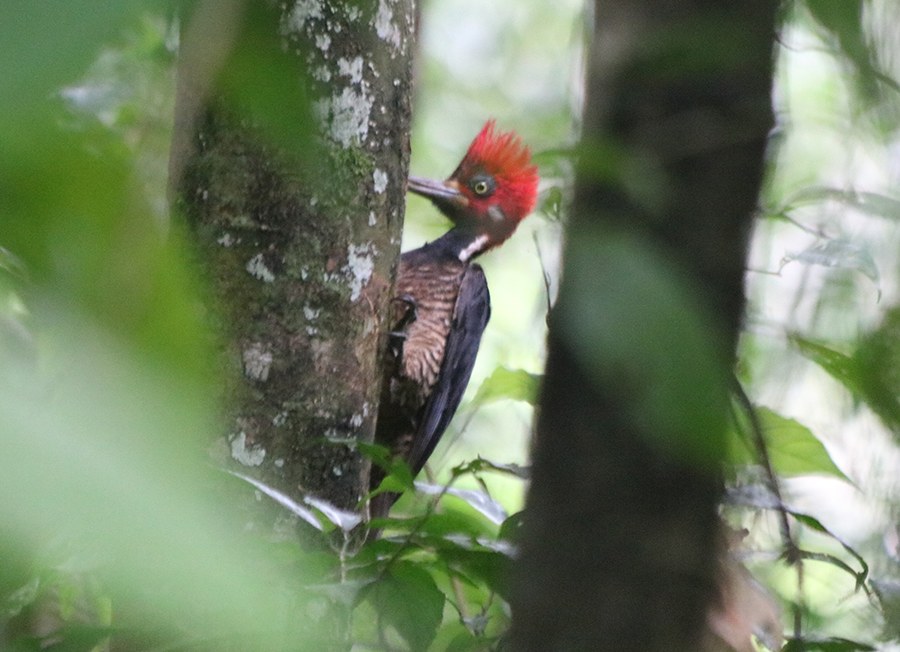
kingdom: Animalia
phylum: Chordata
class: Aves
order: Piciformes
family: Picidae
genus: Campephilus
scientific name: Campephilus melanoleucos
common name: Crimson-crested woodpecker
